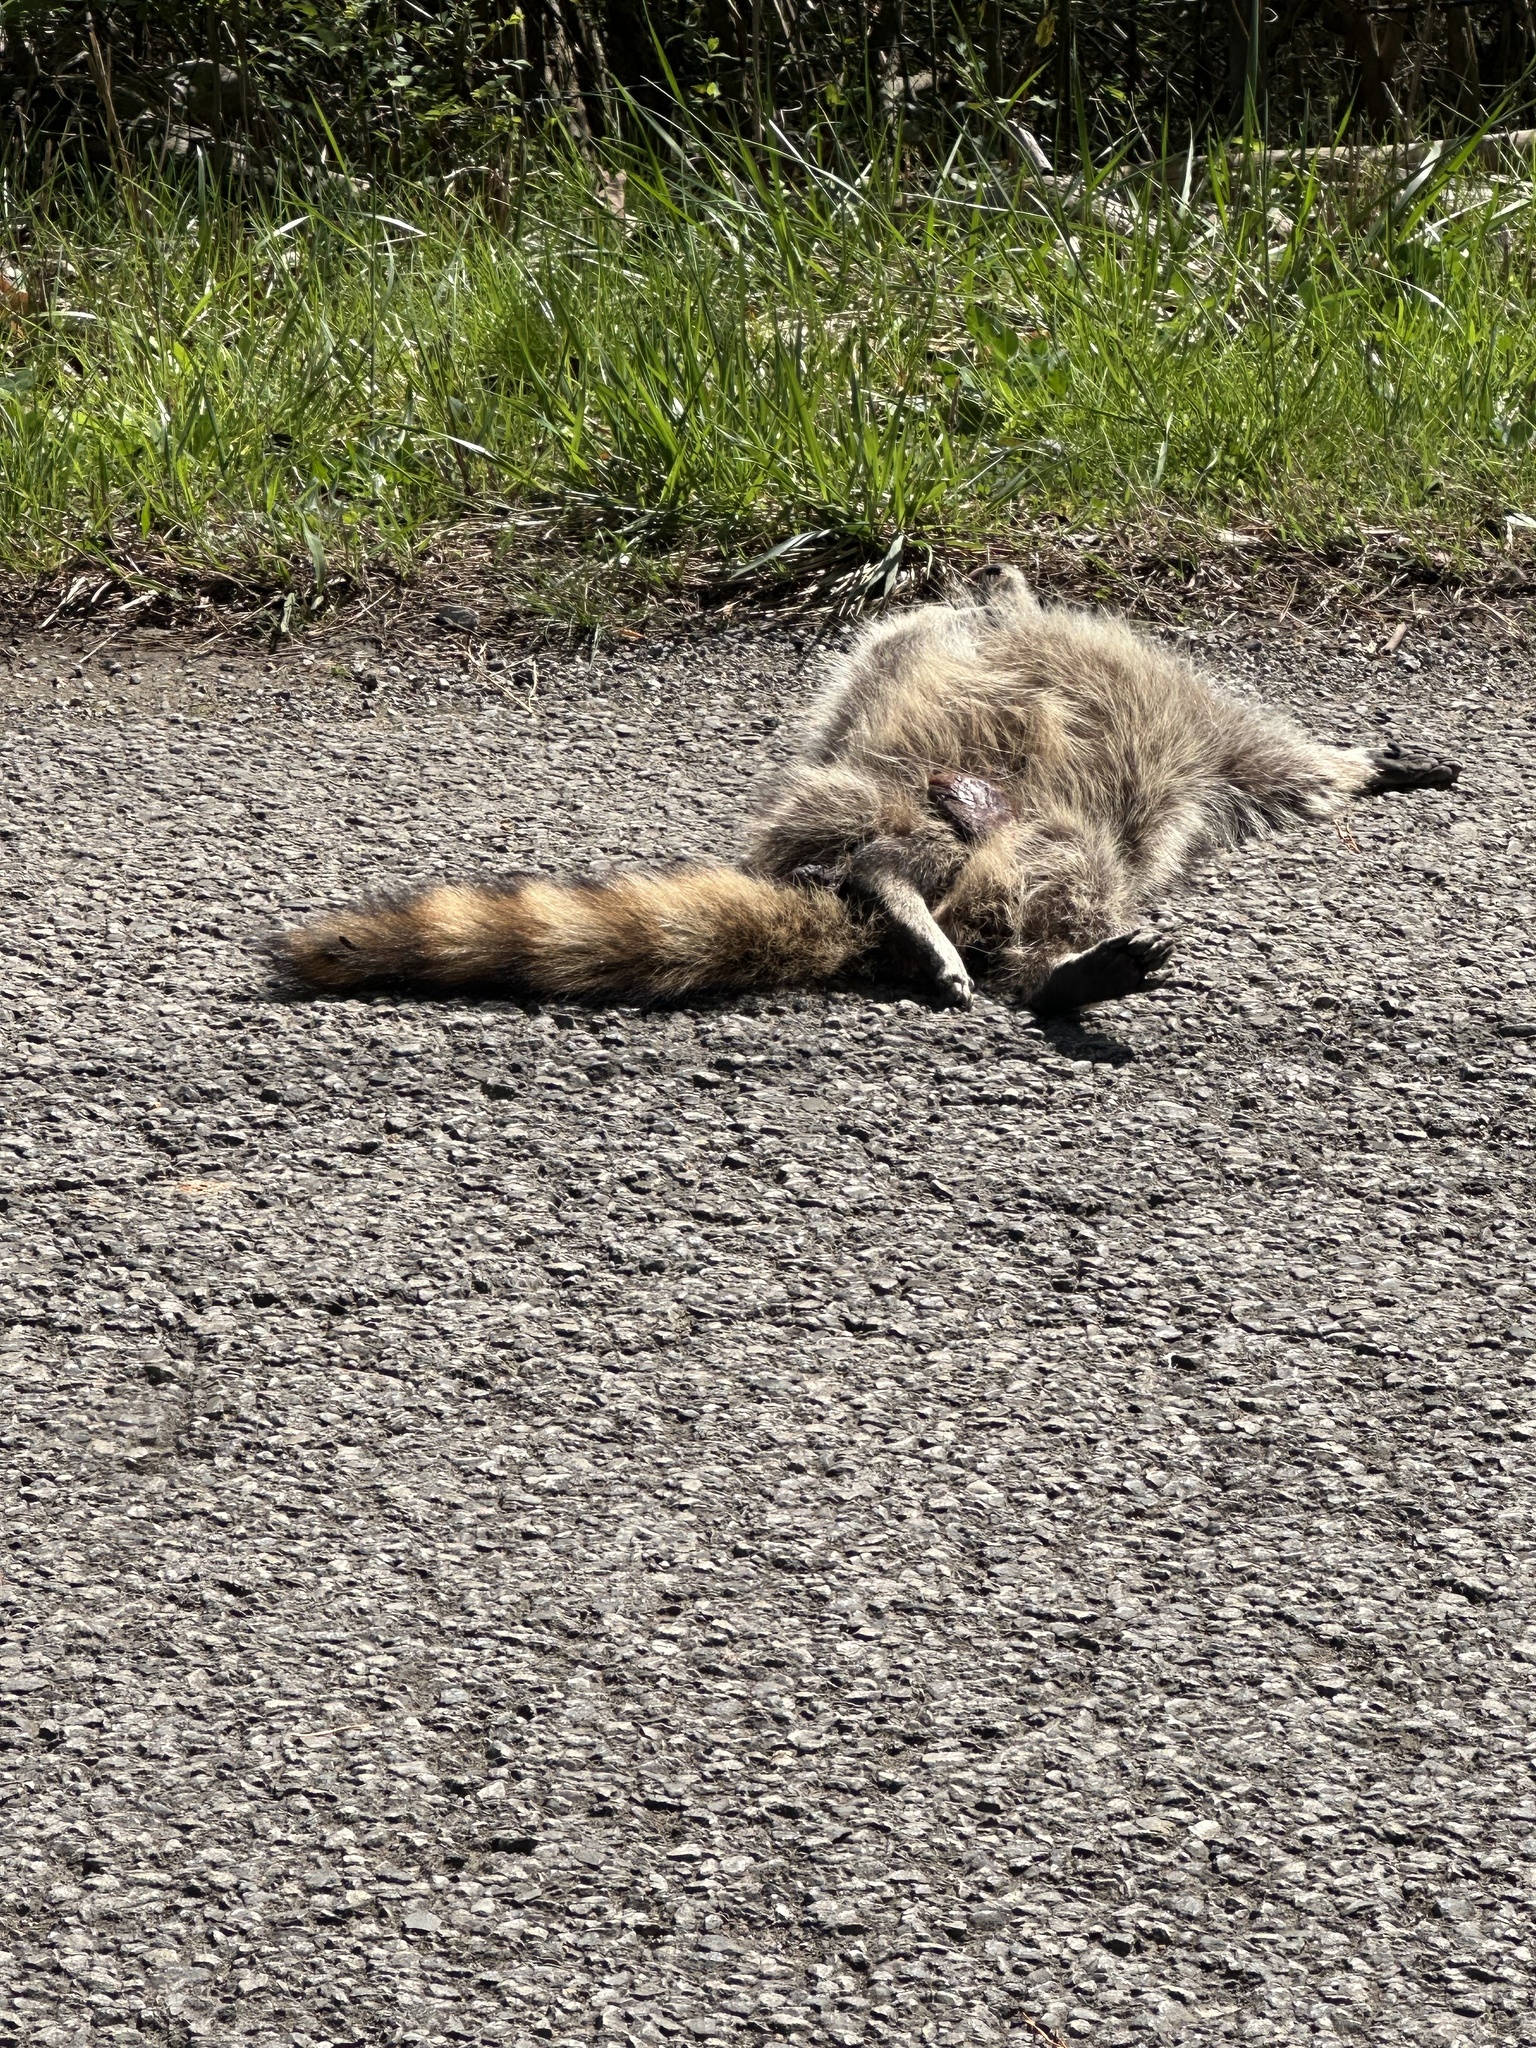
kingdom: Animalia
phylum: Chordata
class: Mammalia
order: Carnivora
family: Procyonidae
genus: Procyon
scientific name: Procyon lotor
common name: Raccoon
